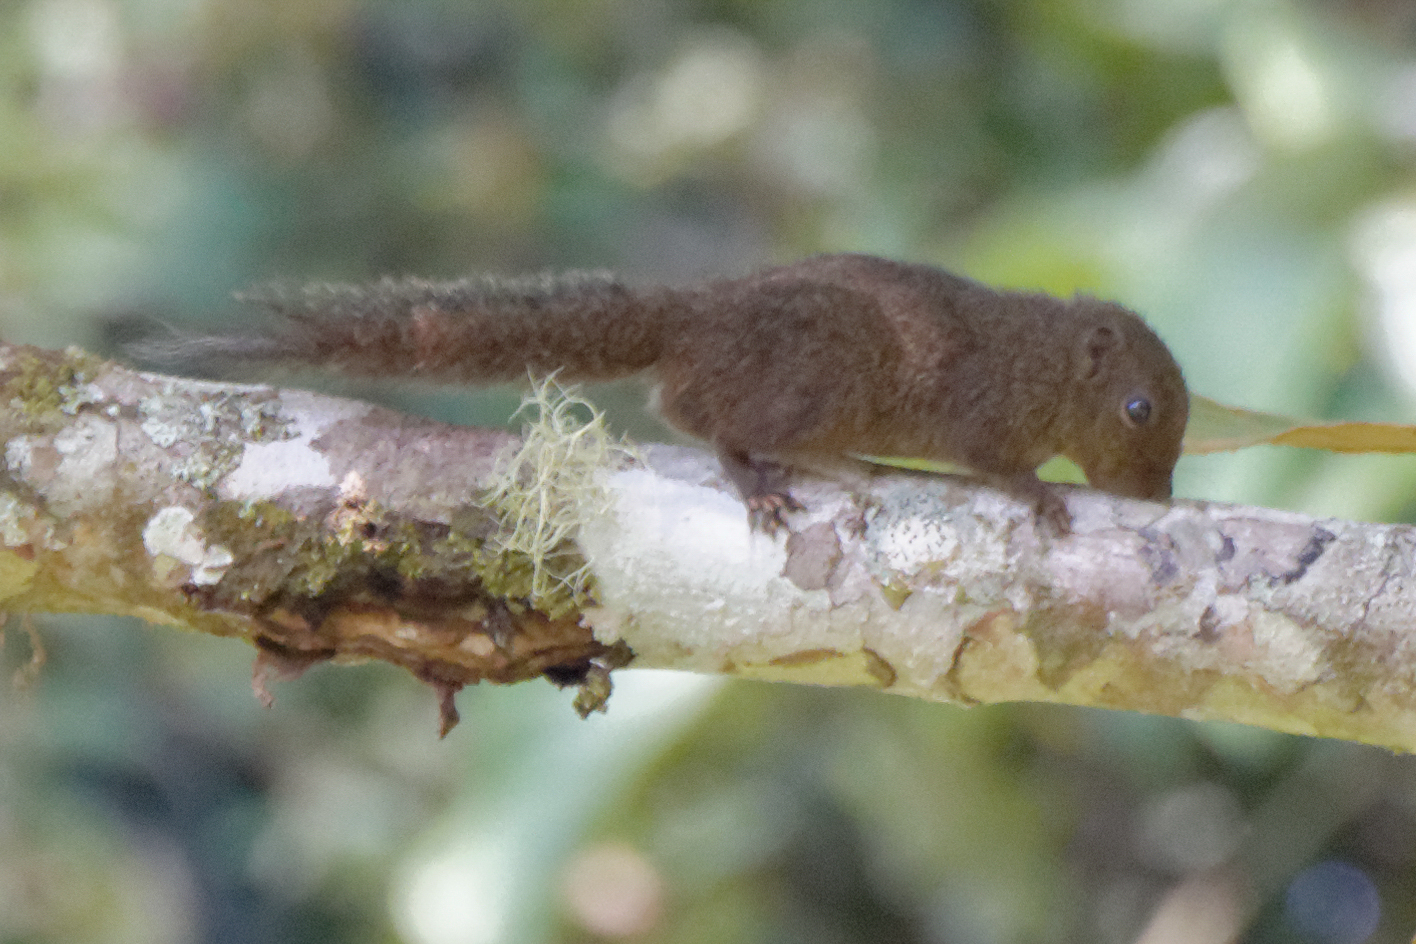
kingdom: Animalia
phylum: Chordata
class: Mammalia
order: Rodentia
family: Sciuridae
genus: Prosciurillus
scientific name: Prosciurillus murinus
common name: Celebes dwarf squirrel
